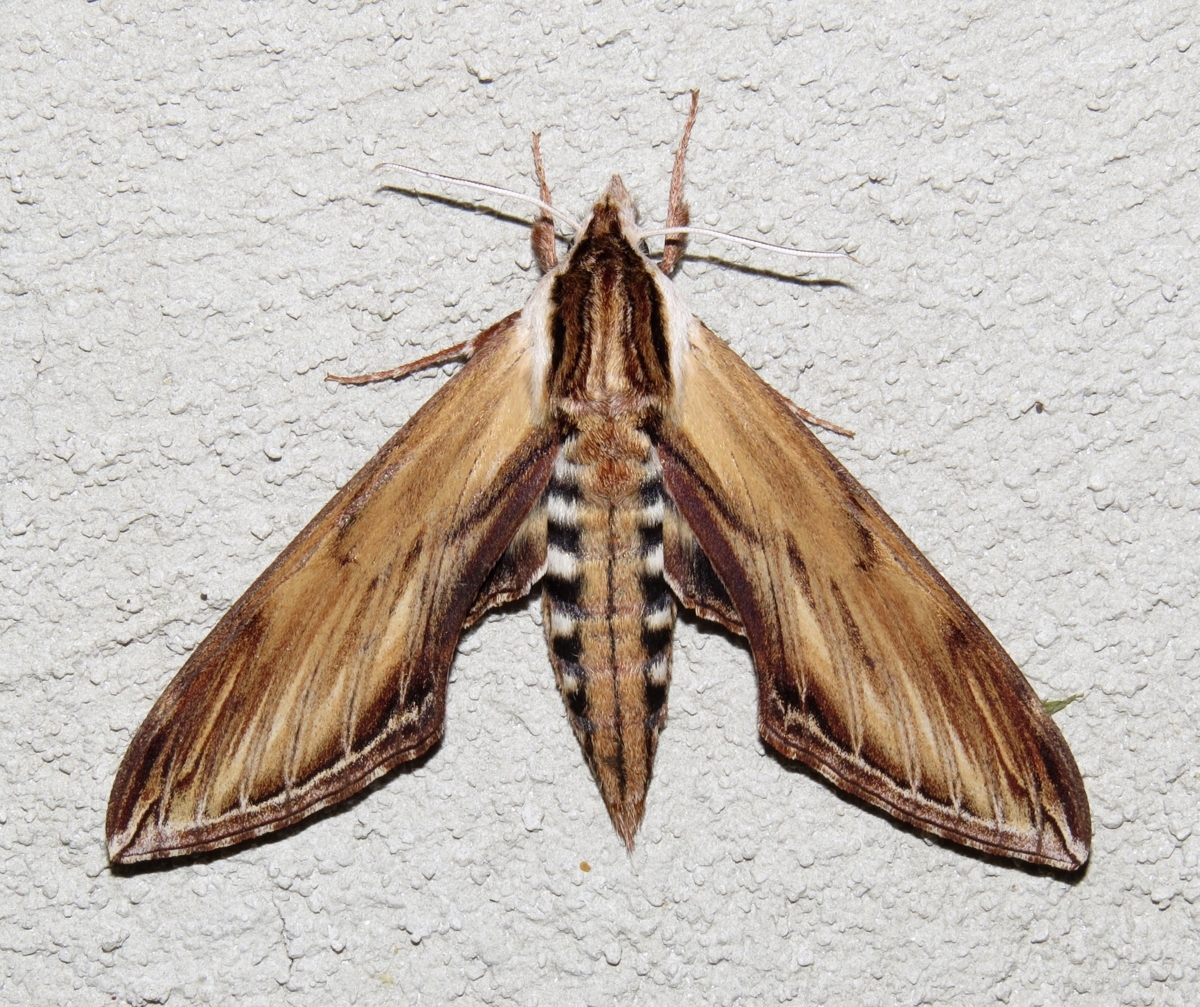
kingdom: Animalia
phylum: Arthropoda
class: Insecta
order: Lepidoptera
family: Sphingidae
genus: Sphinx
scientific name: Sphinx kalmiae
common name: Laurel sphinx
